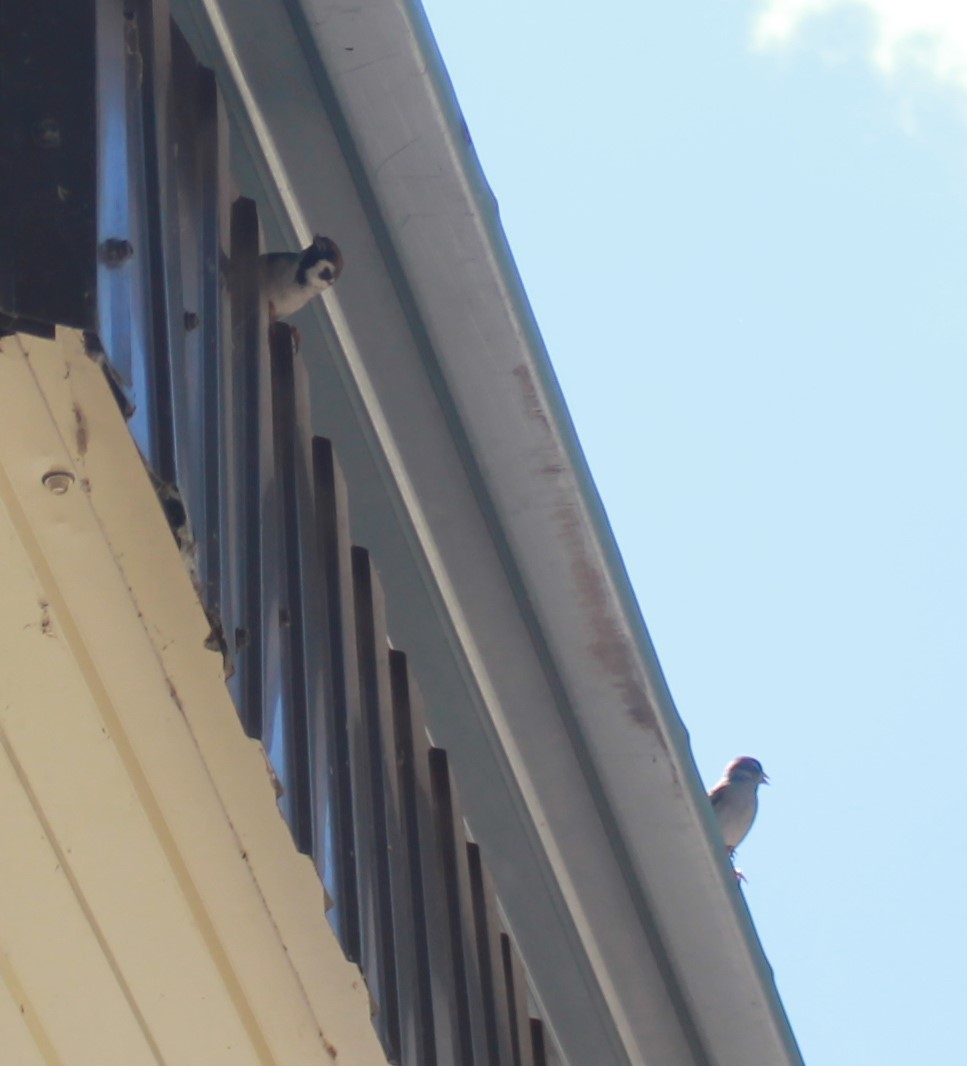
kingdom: Animalia
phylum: Chordata
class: Aves
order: Passeriformes
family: Passeridae
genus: Passer
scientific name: Passer montanus
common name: Eurasian tree sparrow
